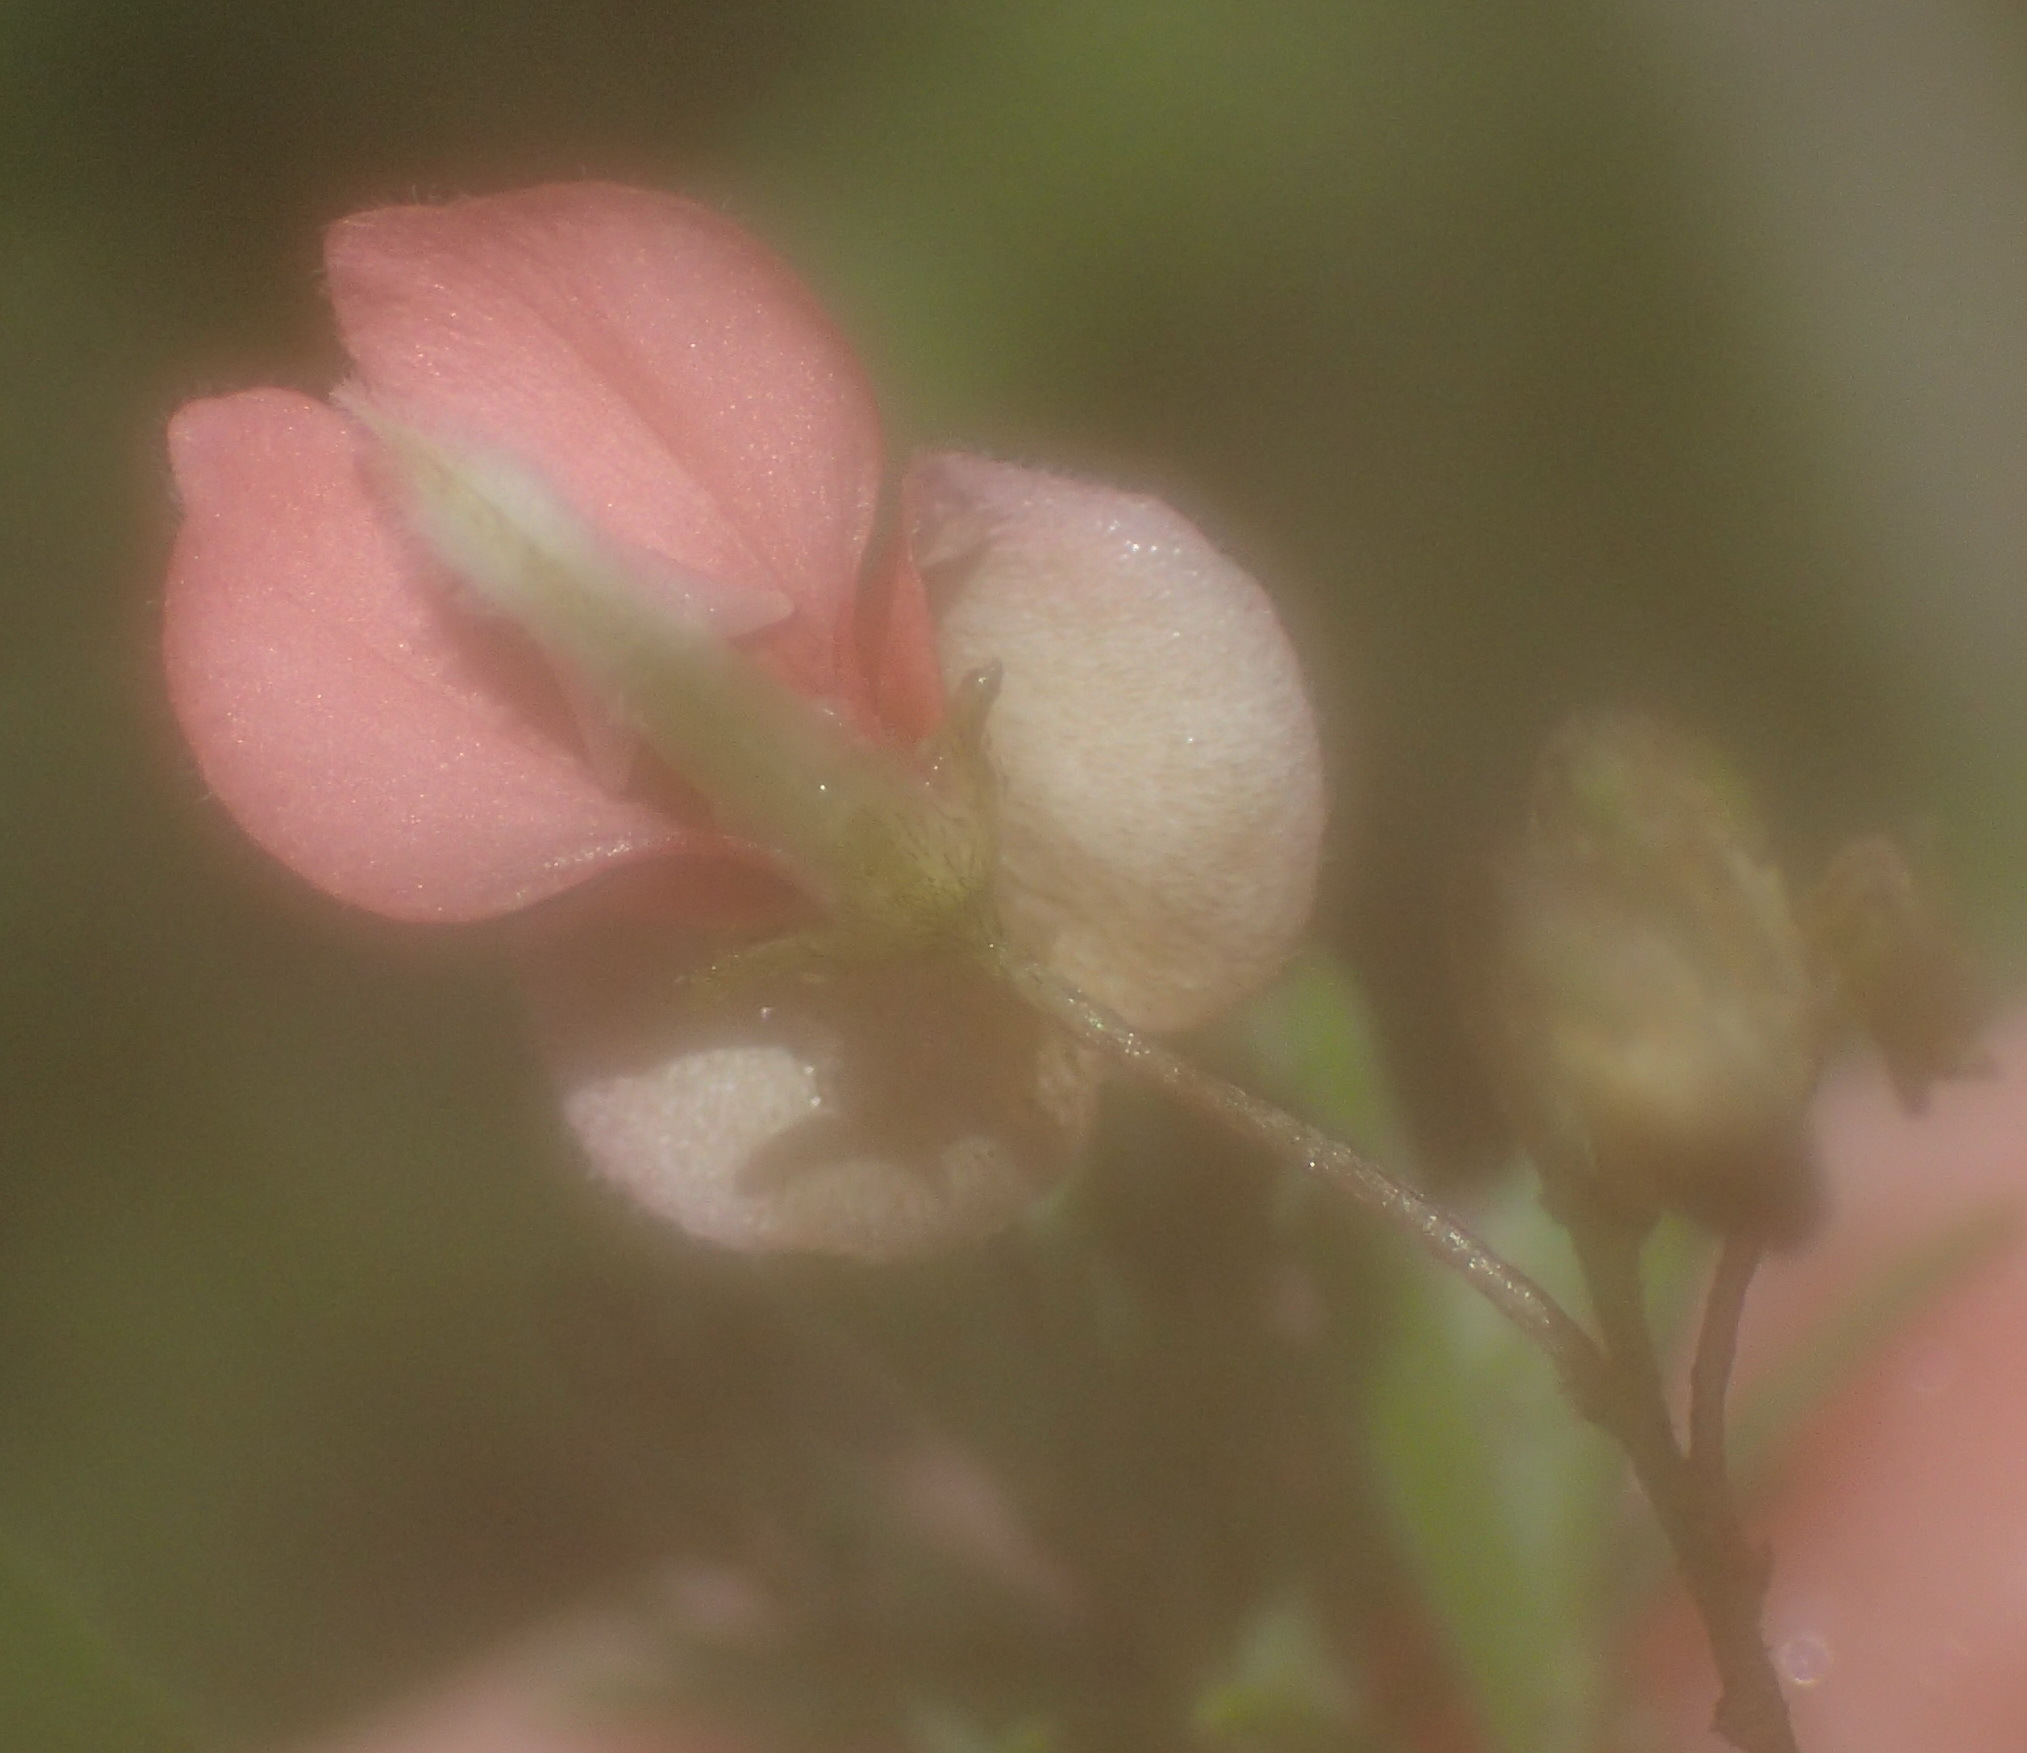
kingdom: Plantae
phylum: Tracheophyta
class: Magnoliopsida
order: Fabales
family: Fabaceae
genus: Indigofera
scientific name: Indigofera verrucosa
